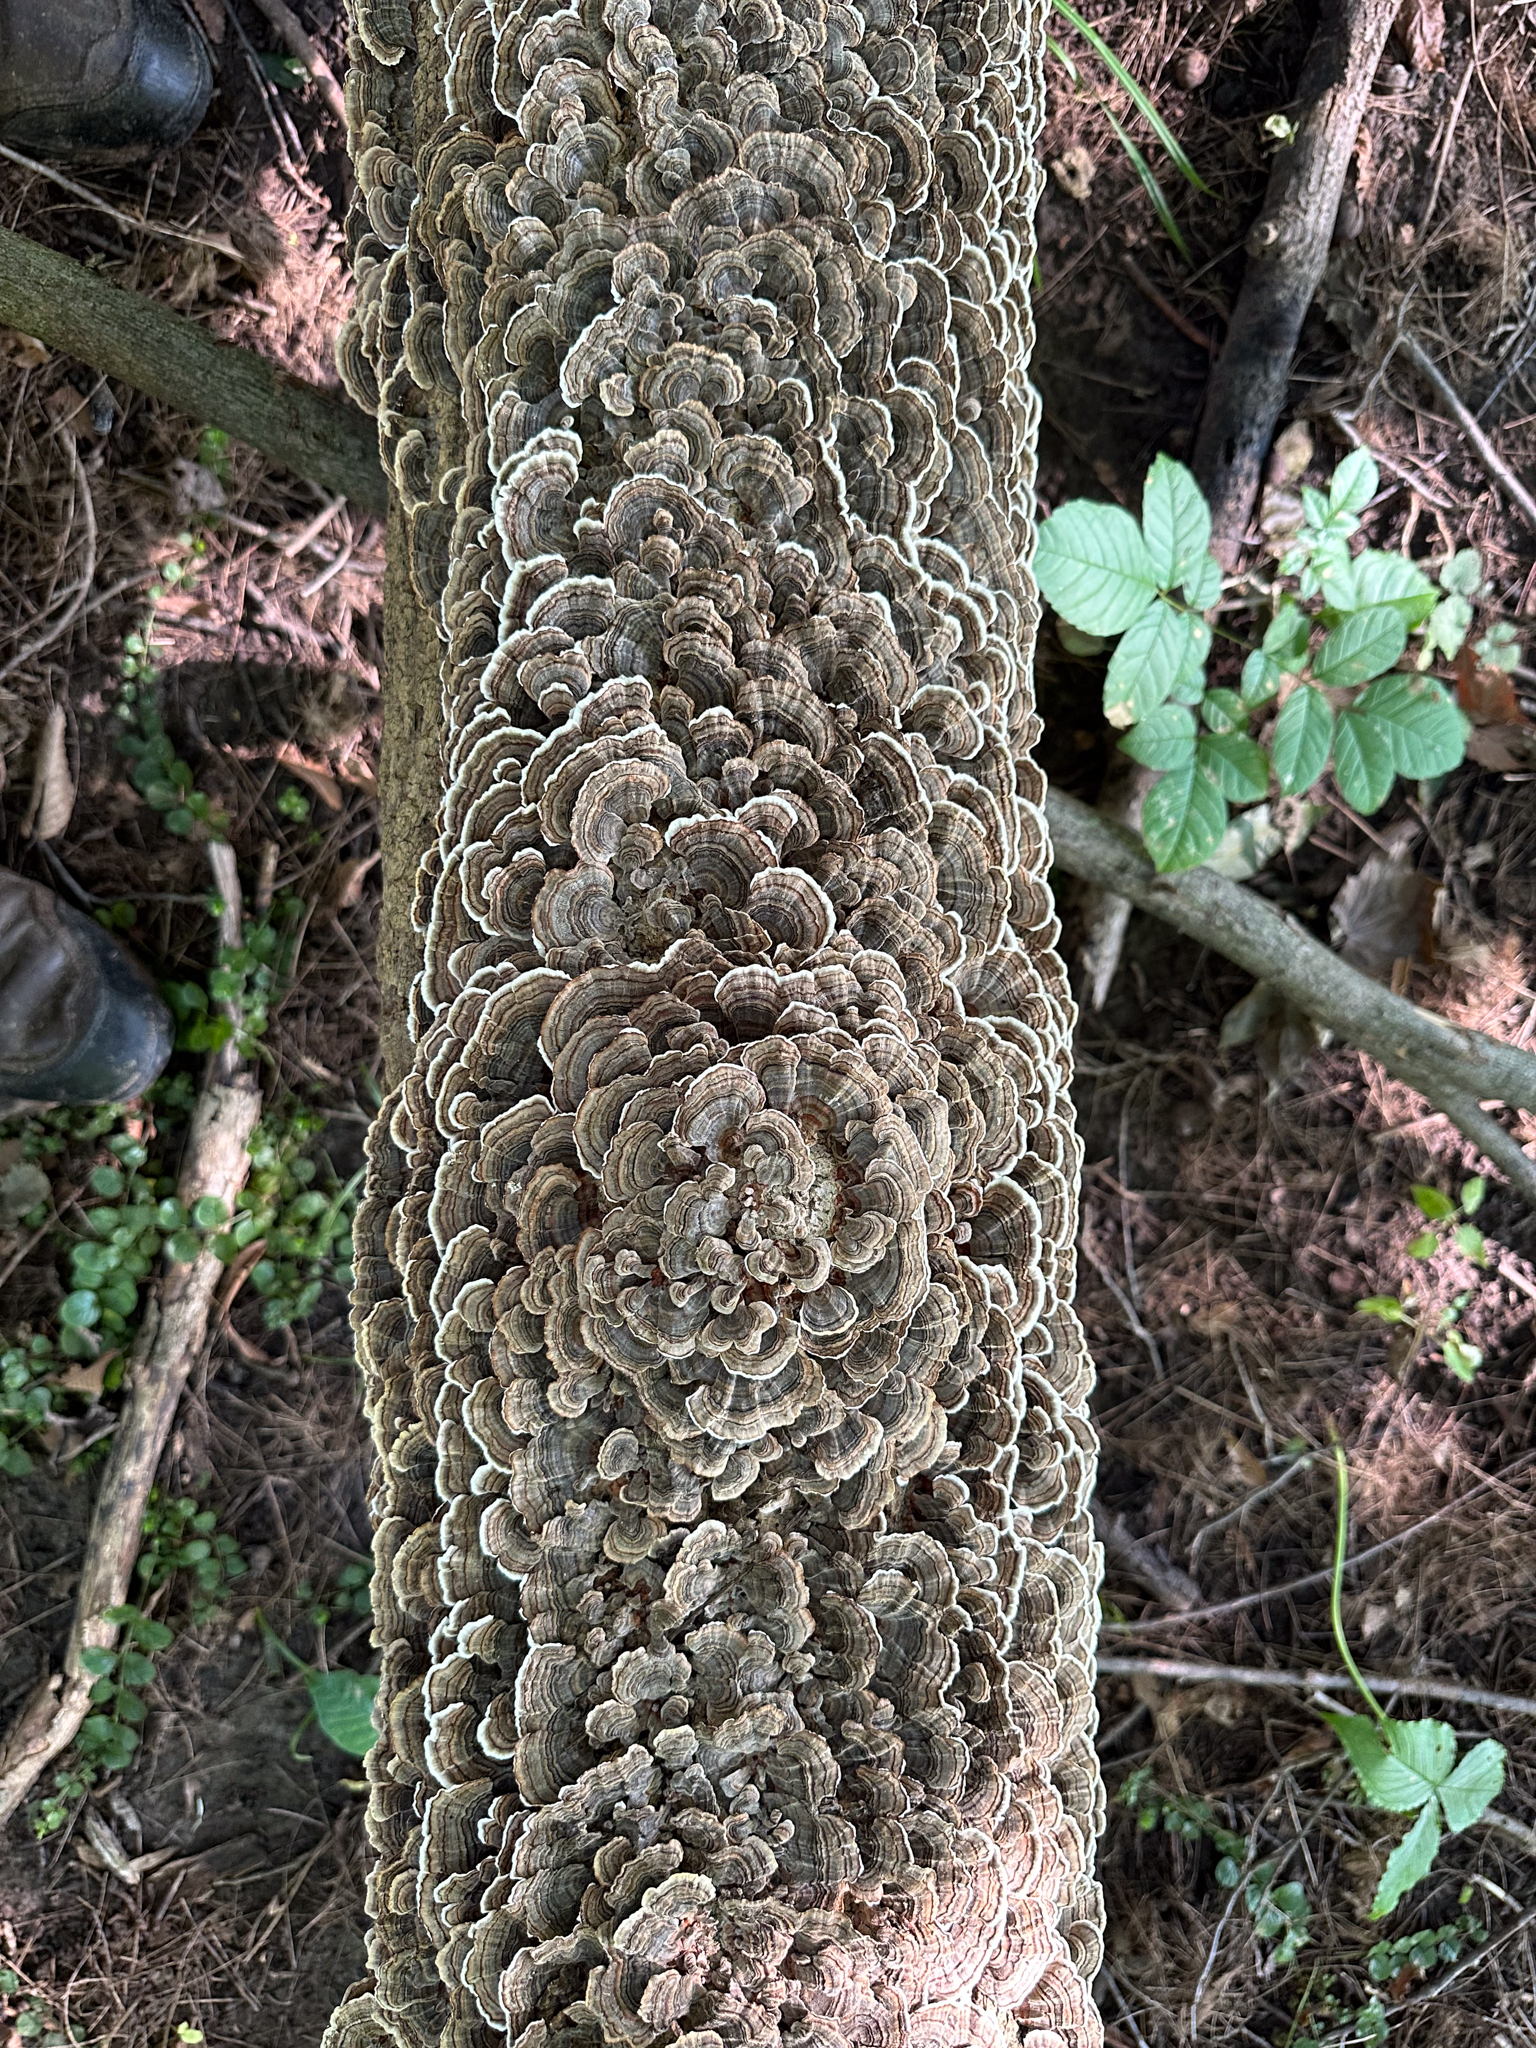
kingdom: Fungi
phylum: Basidiomycota
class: Agaricomycetes
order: Polyporales
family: Polyporaceae
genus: Trametes
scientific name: Trametes versicolor
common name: Turkeytail
